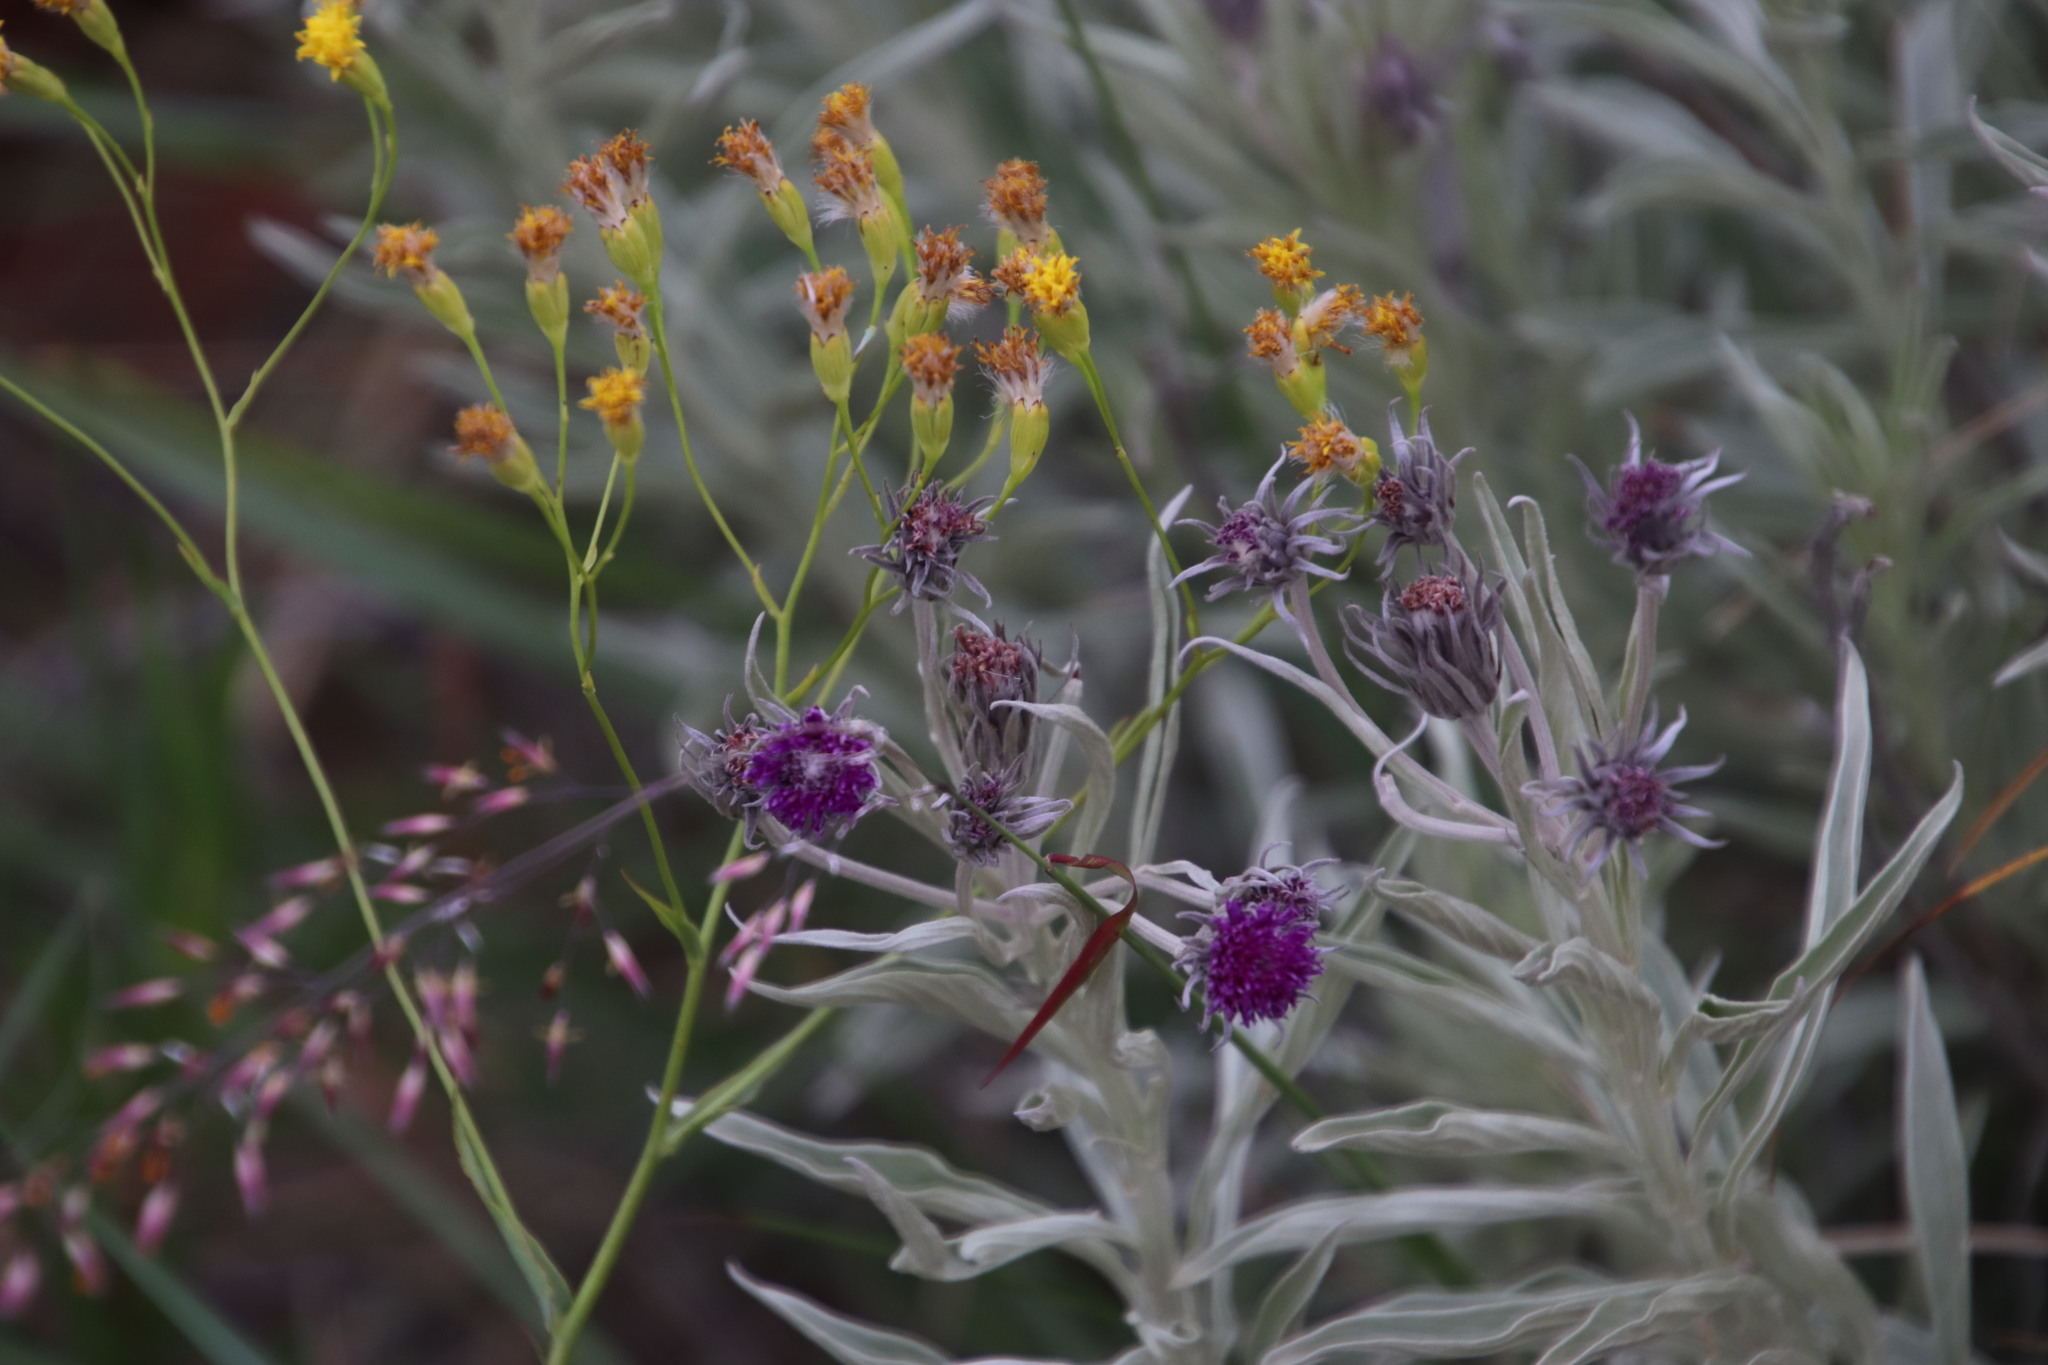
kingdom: Plantae
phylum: Tracheophyta
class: Magnoliopsida
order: Asterales
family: Asteraceae
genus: Hilliardiella
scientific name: Hilliardiella aristata
